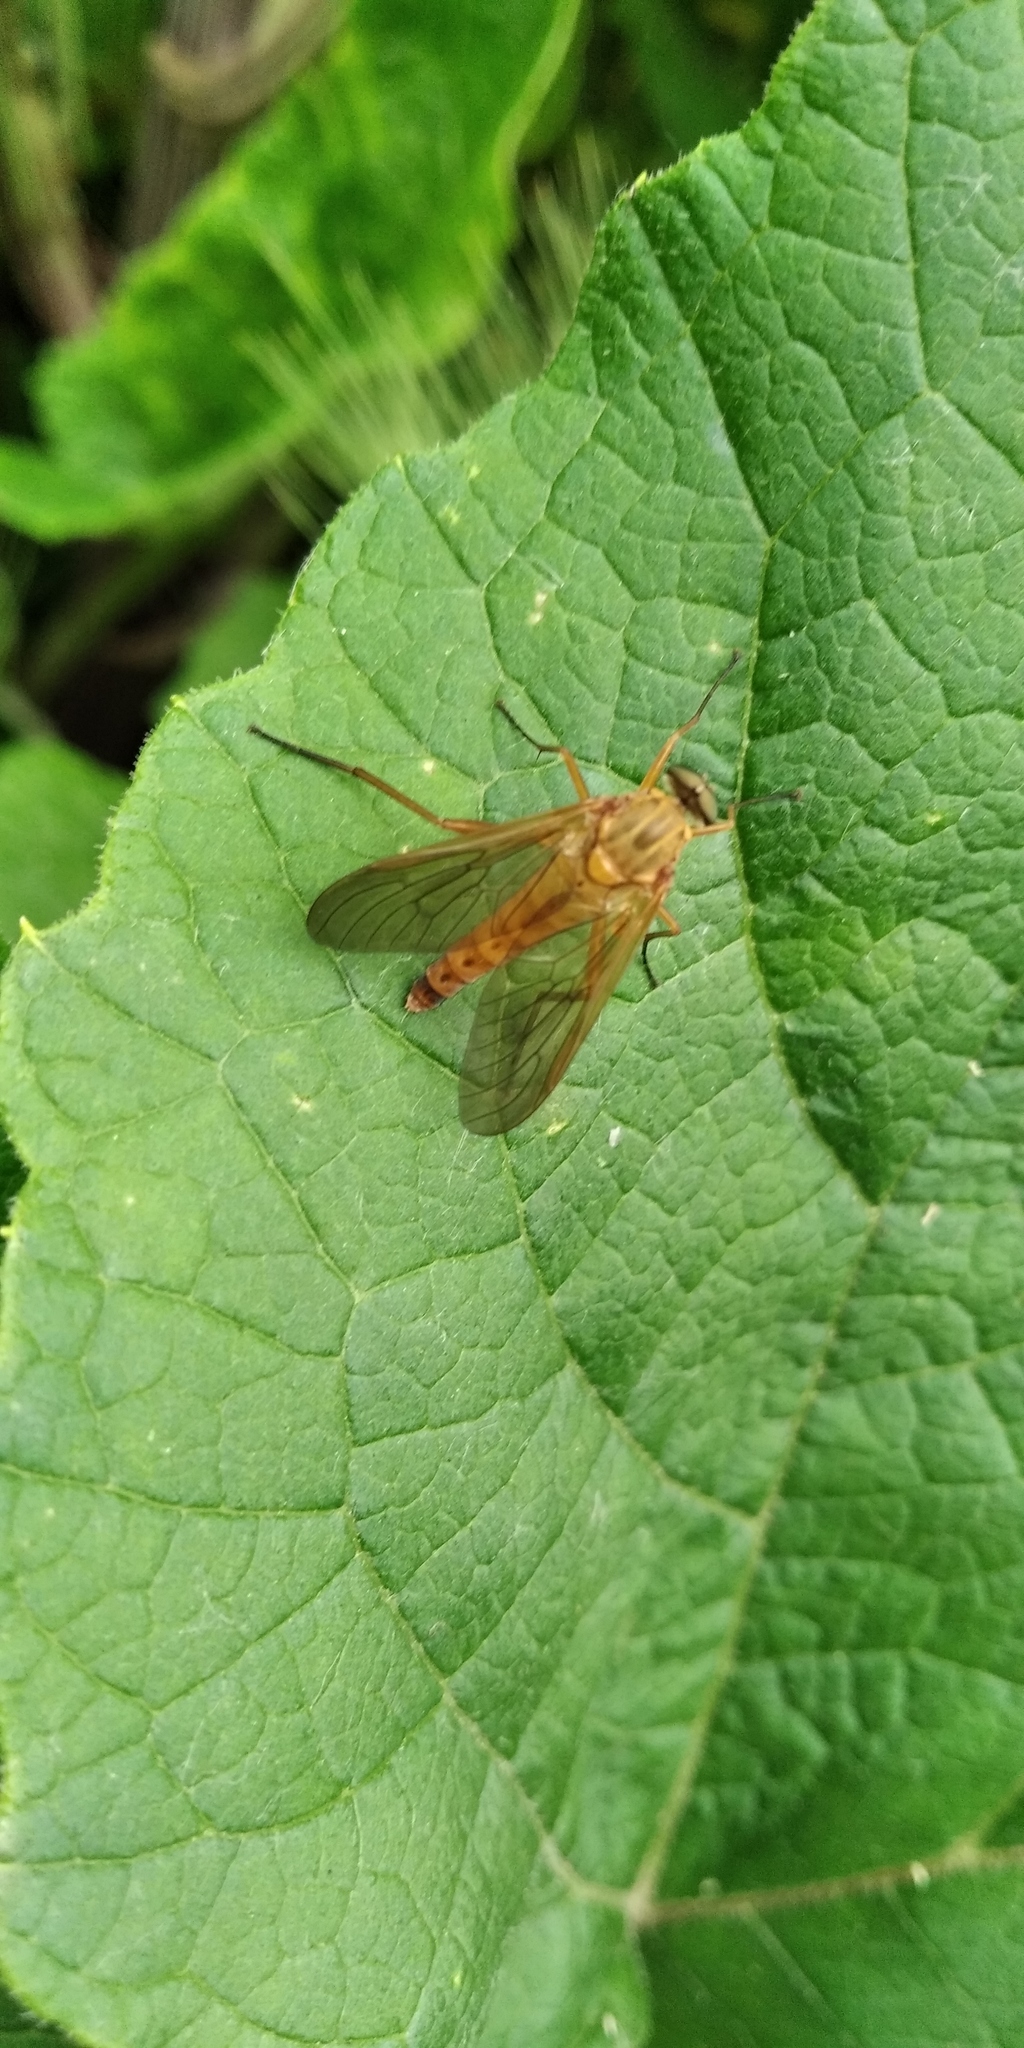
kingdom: Animalia
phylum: Arthropoda
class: Insecta
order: Diptera
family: Rhagionidae
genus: Rhagio
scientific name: Rhagio tringaria
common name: Marsh snipefly
